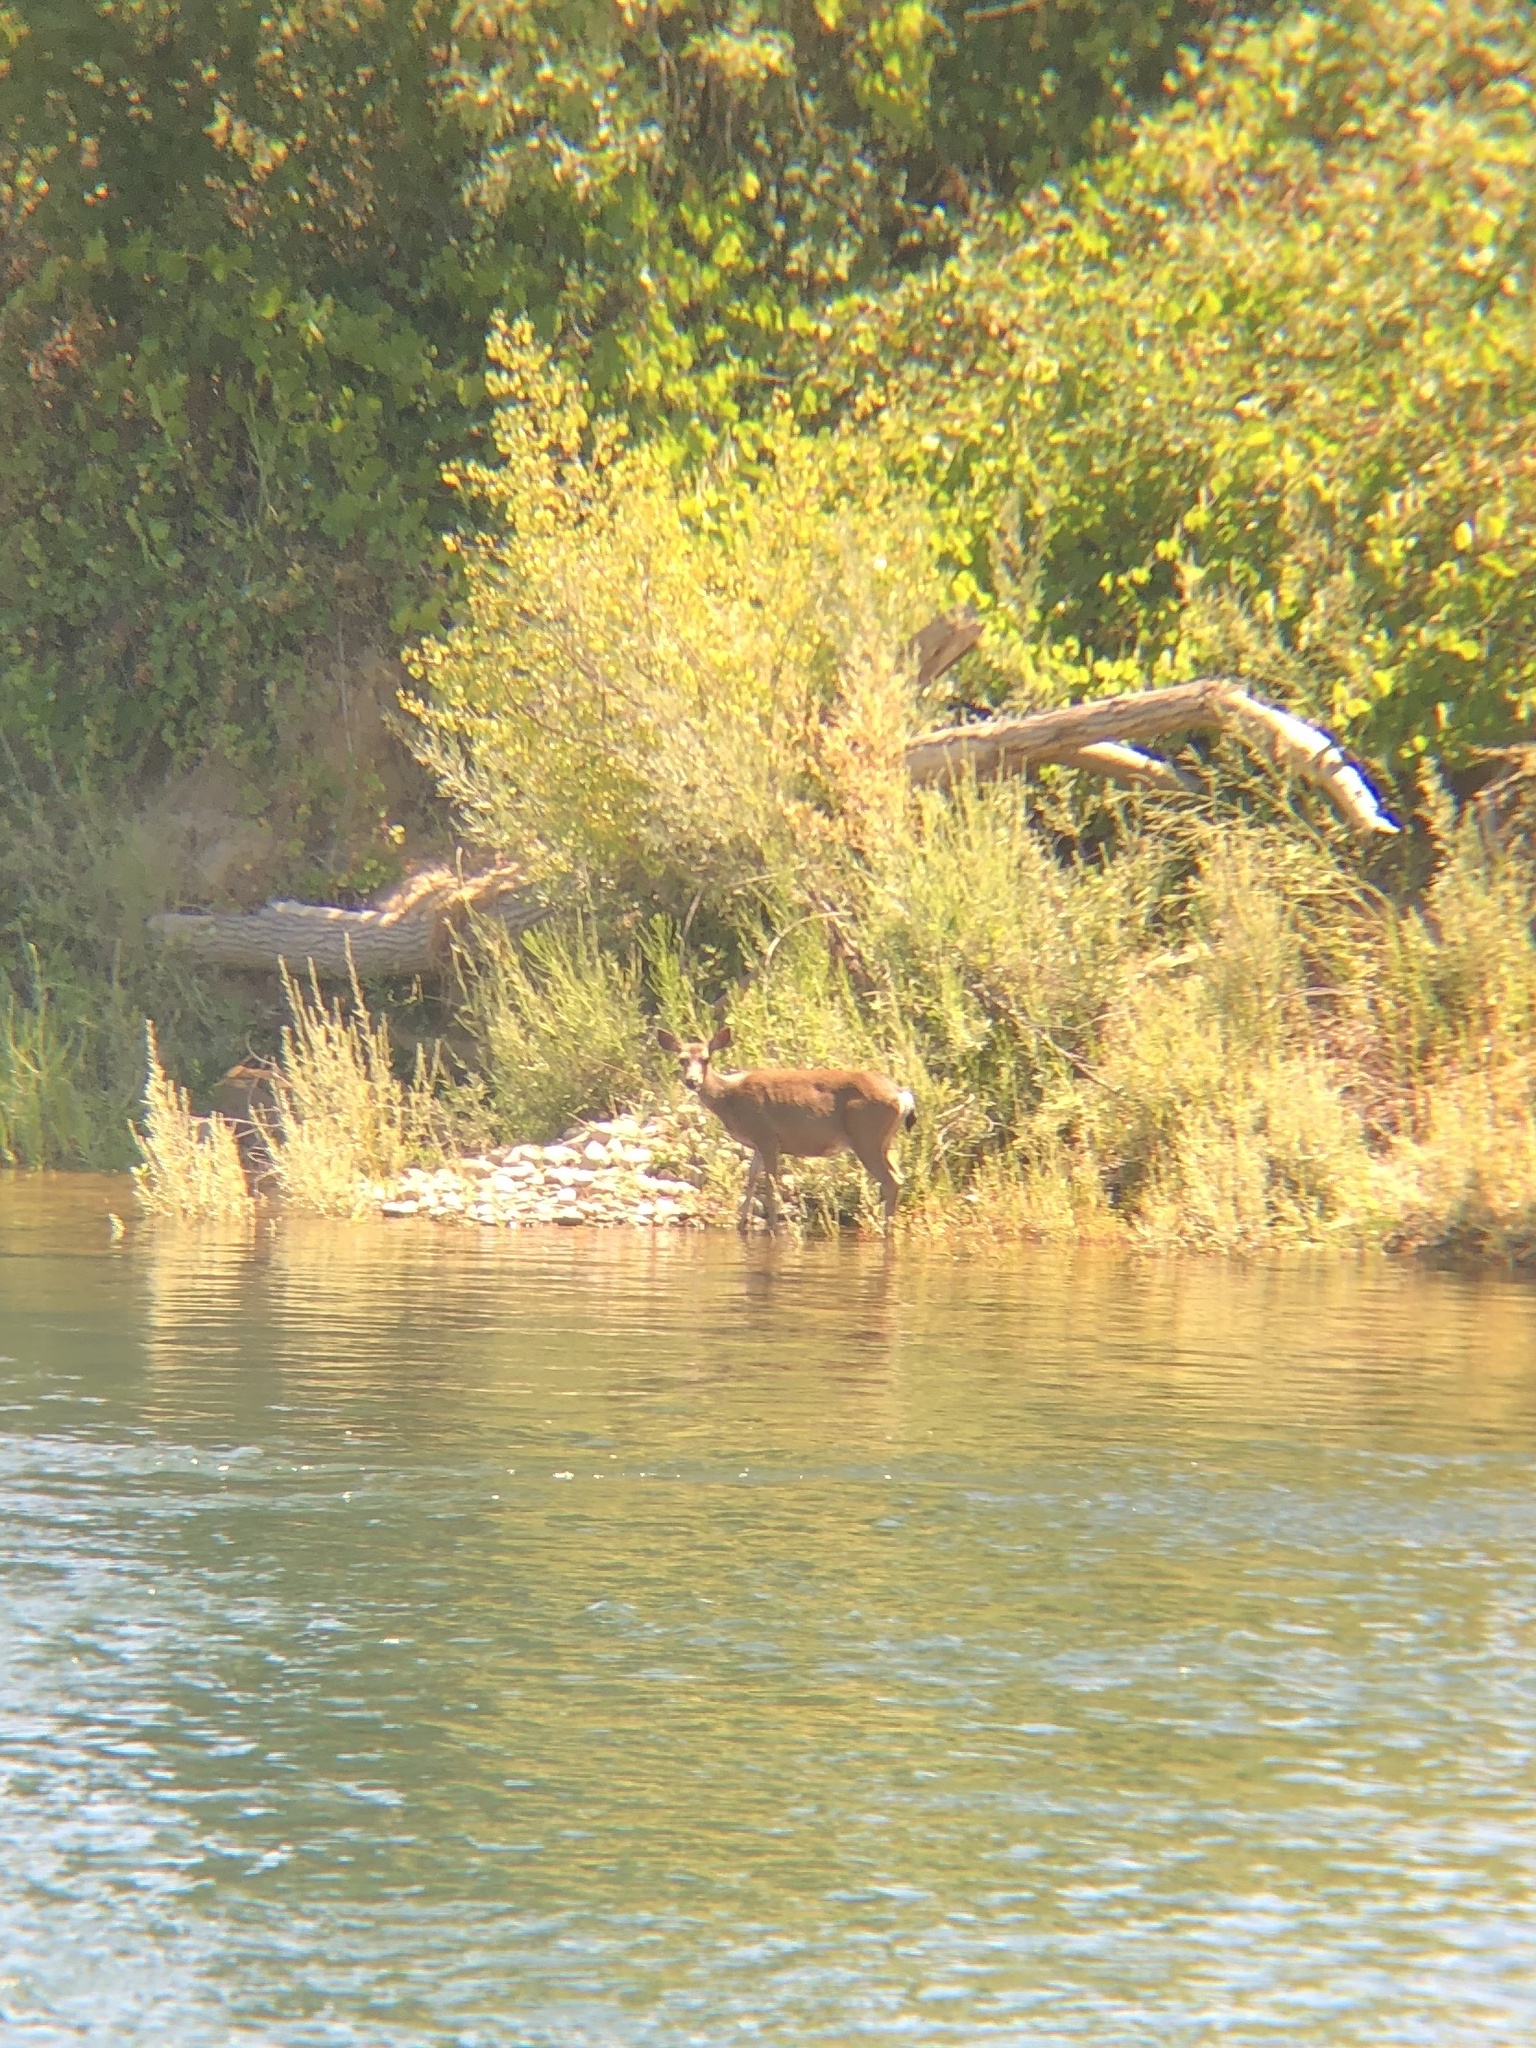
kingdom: Animalia
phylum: Chordata
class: Mammalia
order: Artiodactyla
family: Cervidae
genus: Odocoileus
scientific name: Odocoileus hemionus
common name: Mule deer
